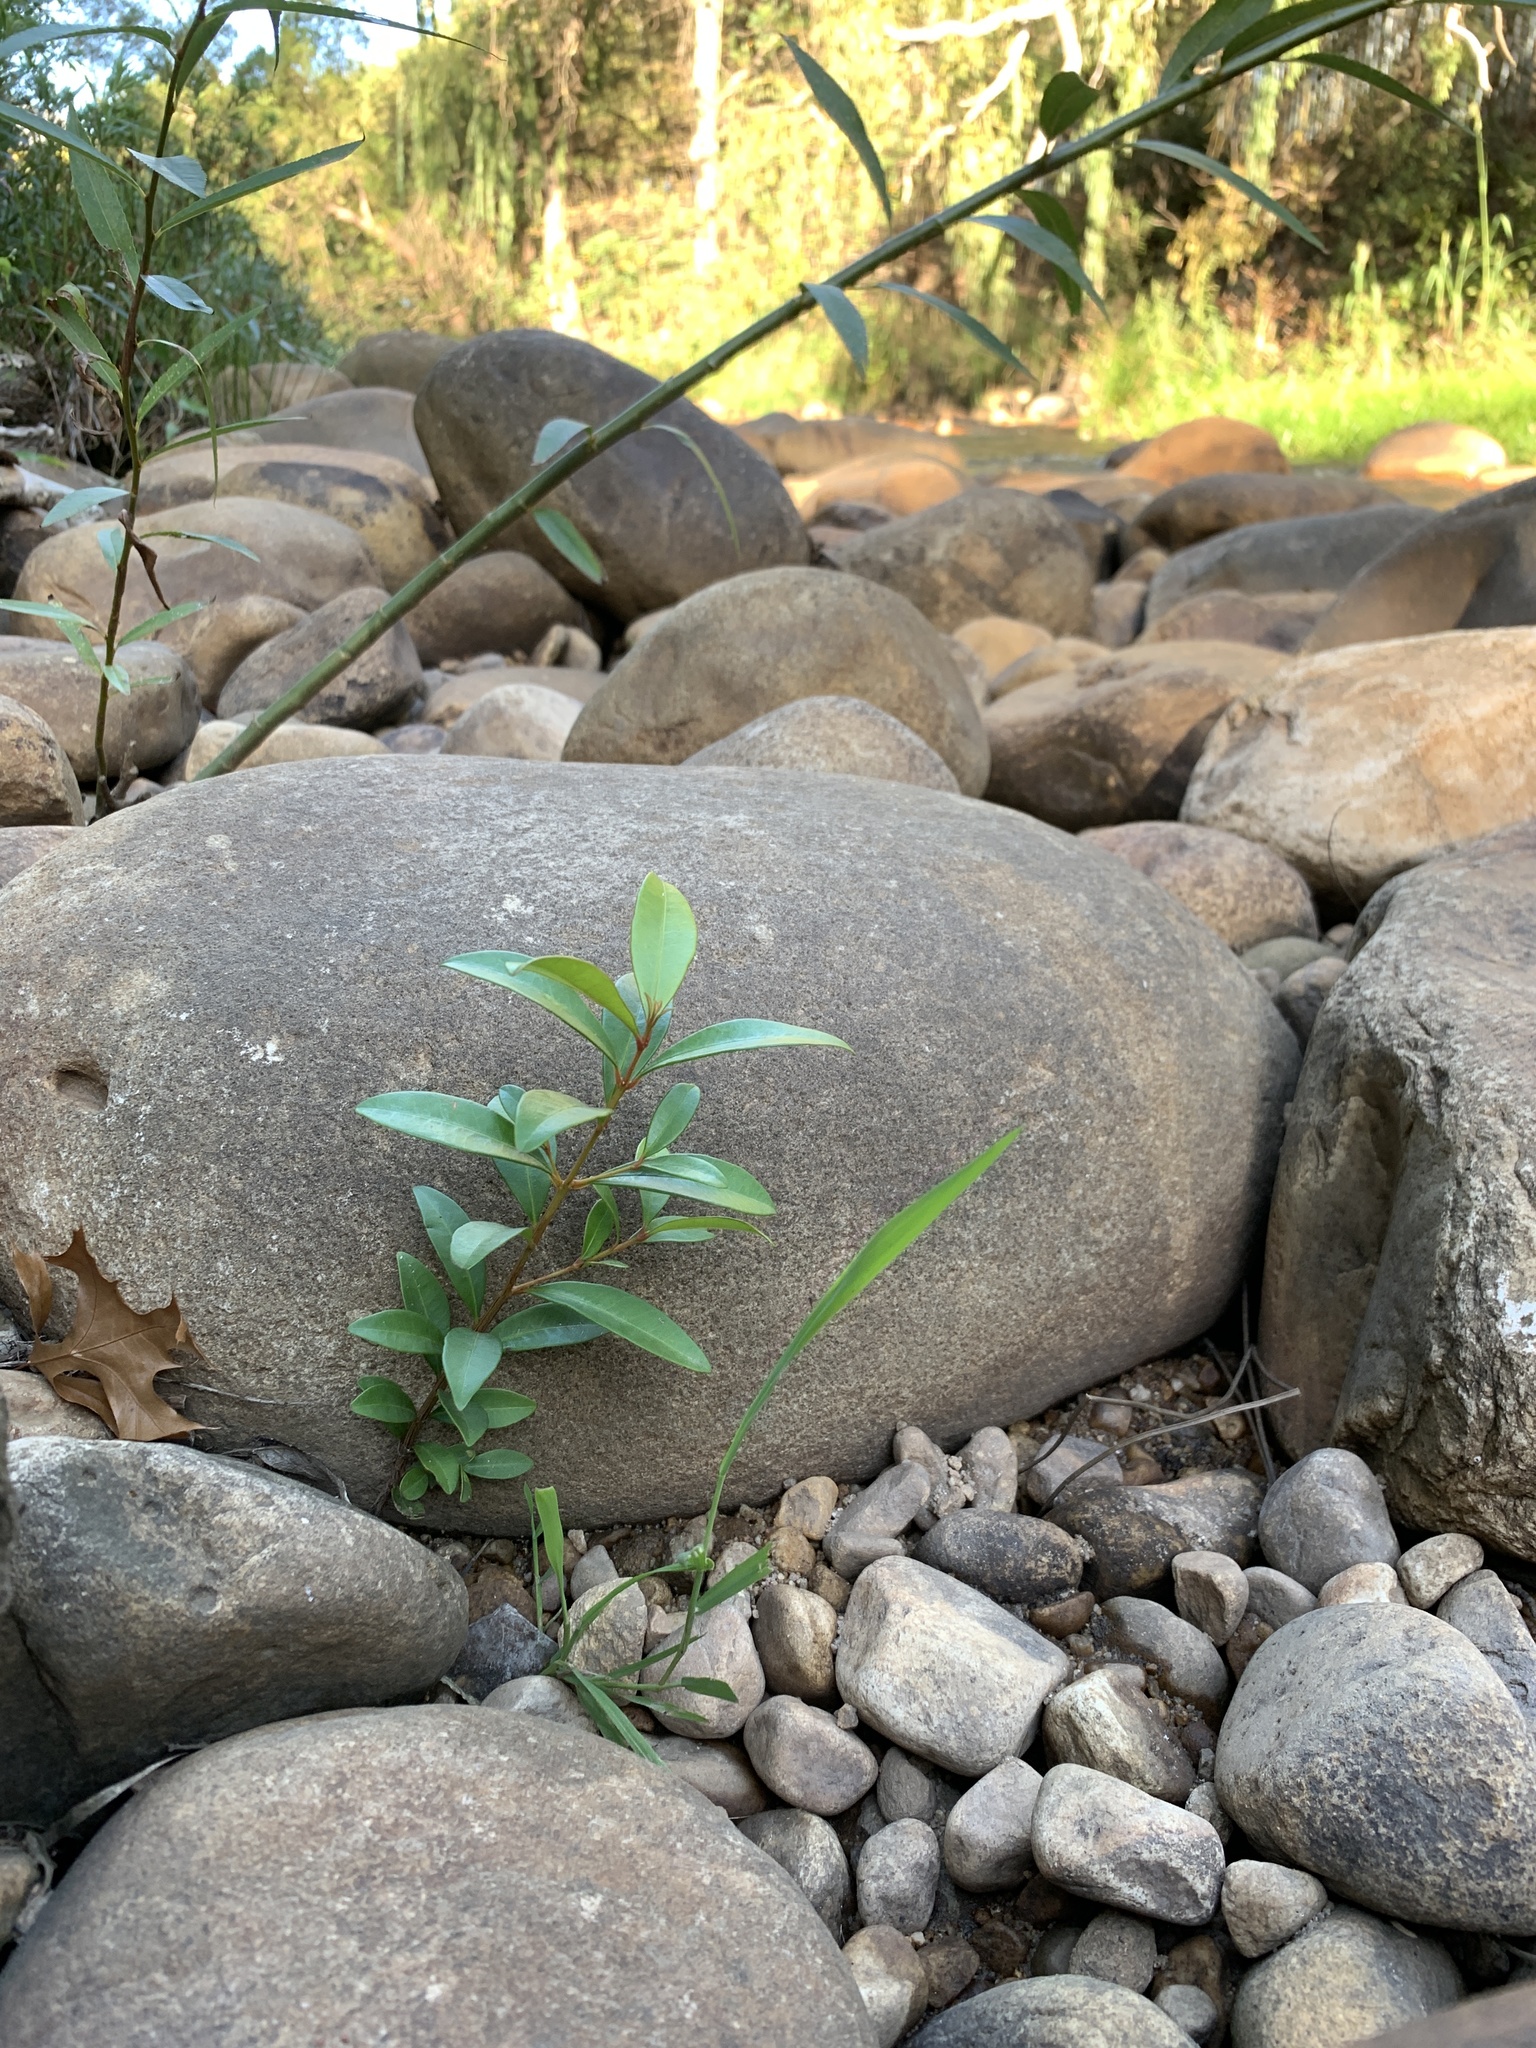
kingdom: Plantae
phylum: Tracheophyta
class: Magnoliopsida
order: Myrtales
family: Myrtaceae
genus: Syzygium
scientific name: Syzygium australe
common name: Australian brush-cherry
